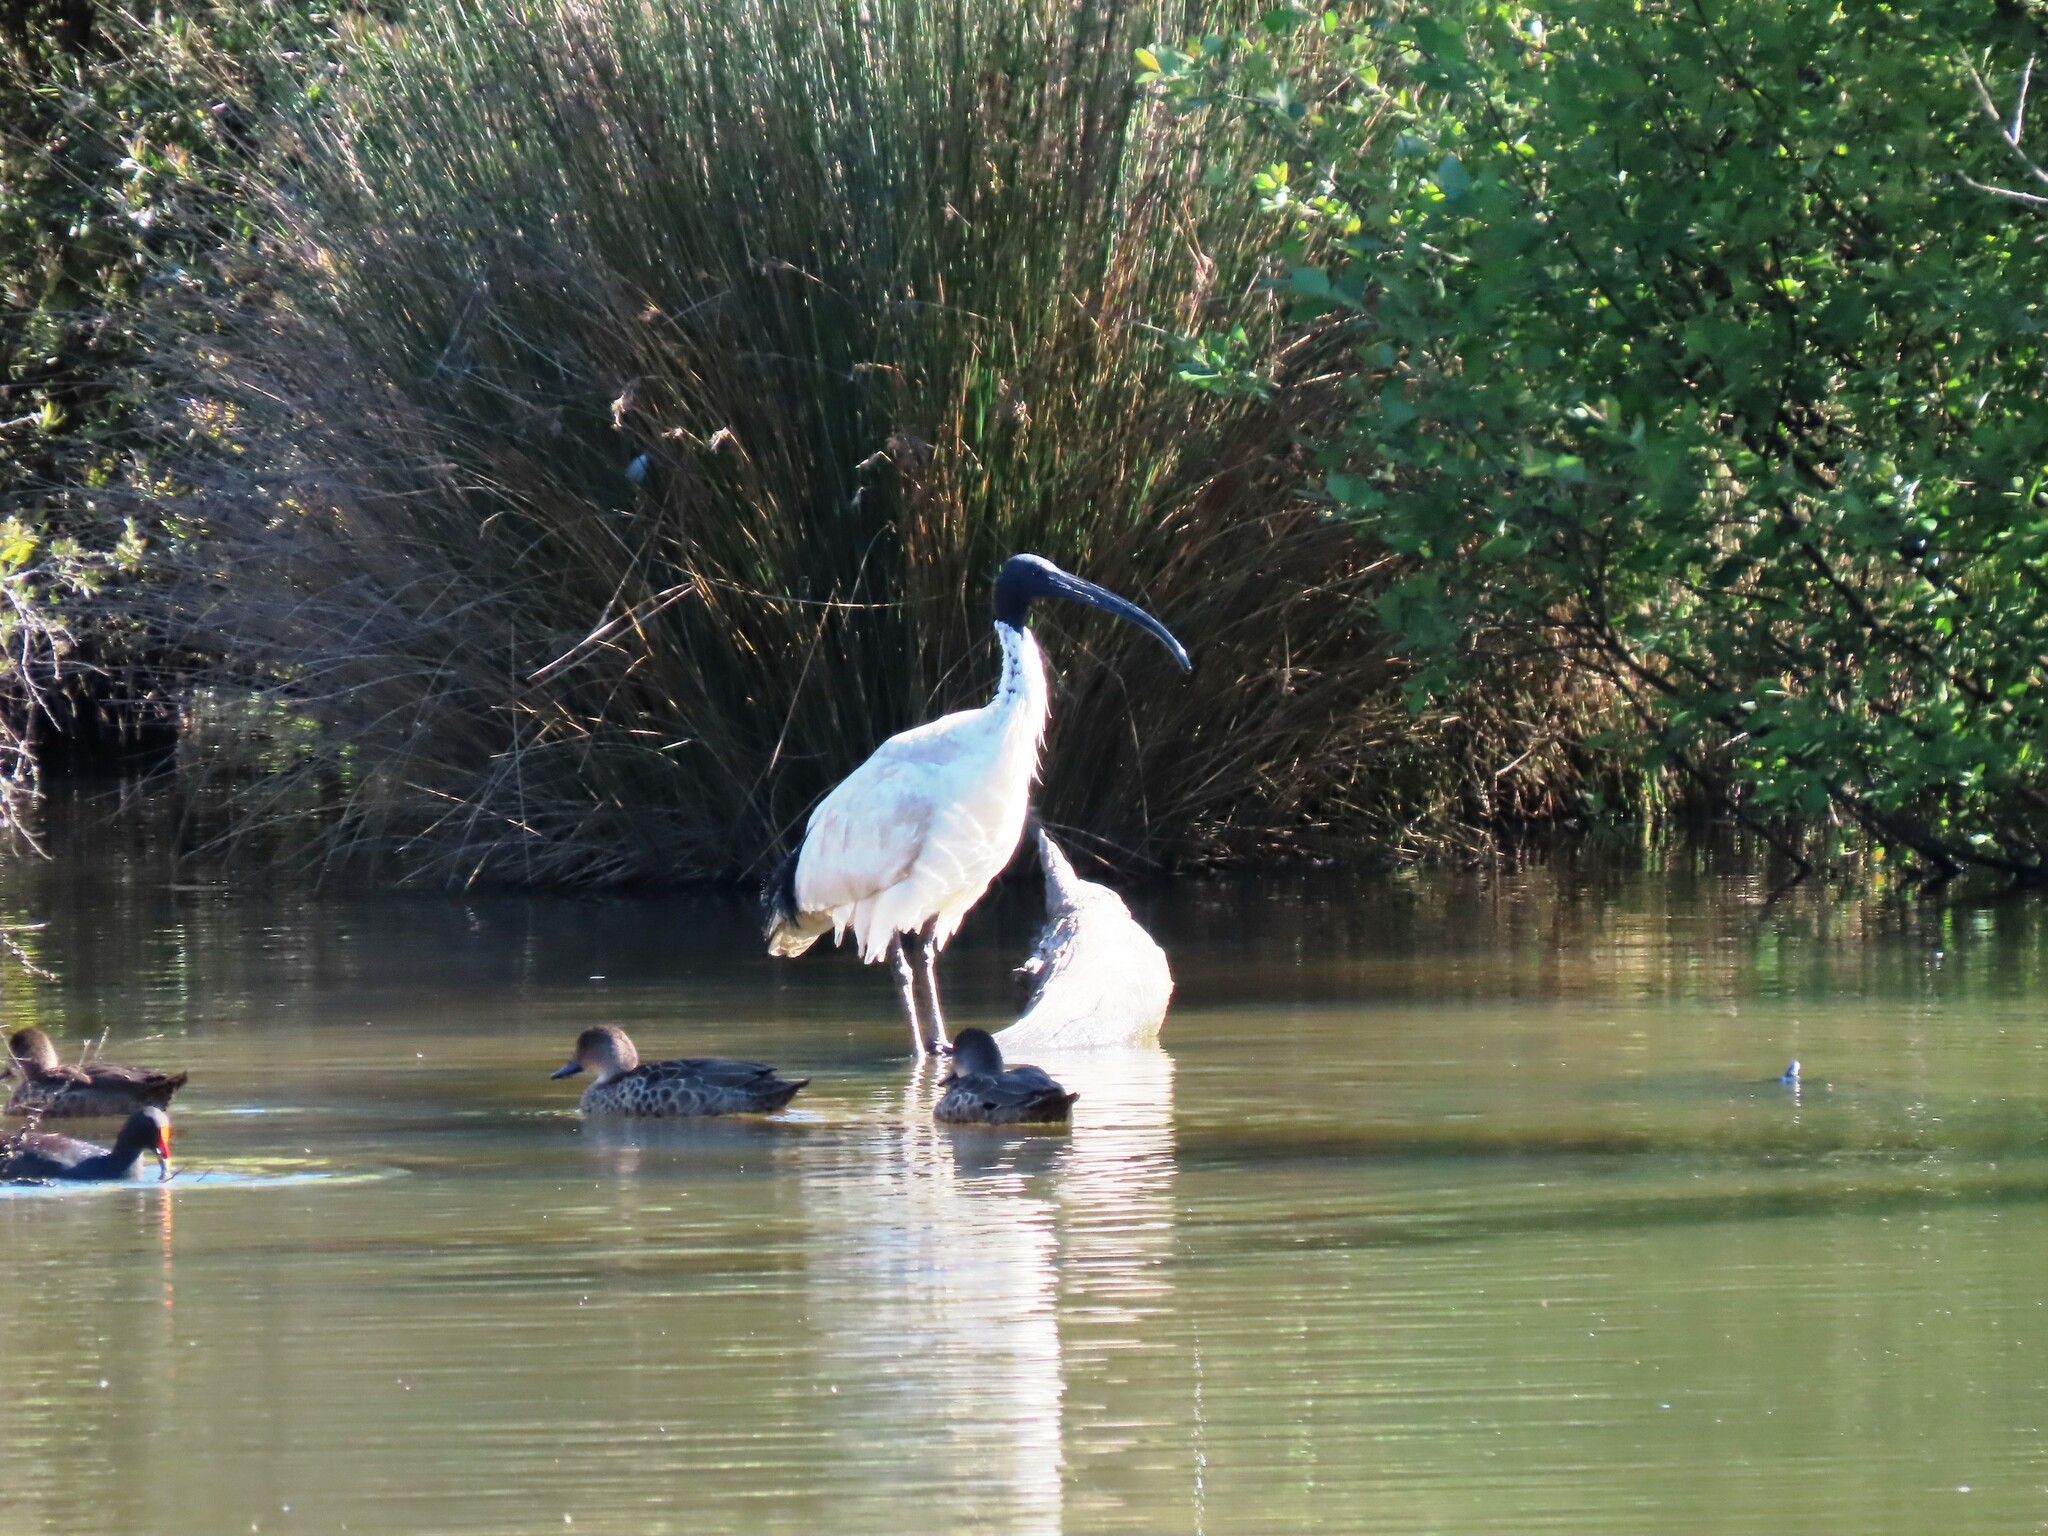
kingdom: Animalia
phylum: Chordata
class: Aves
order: Pelecaniformes
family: Threskiornithidae
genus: Threskiornis
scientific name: Threskiornis molucca
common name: Australian white ibis
